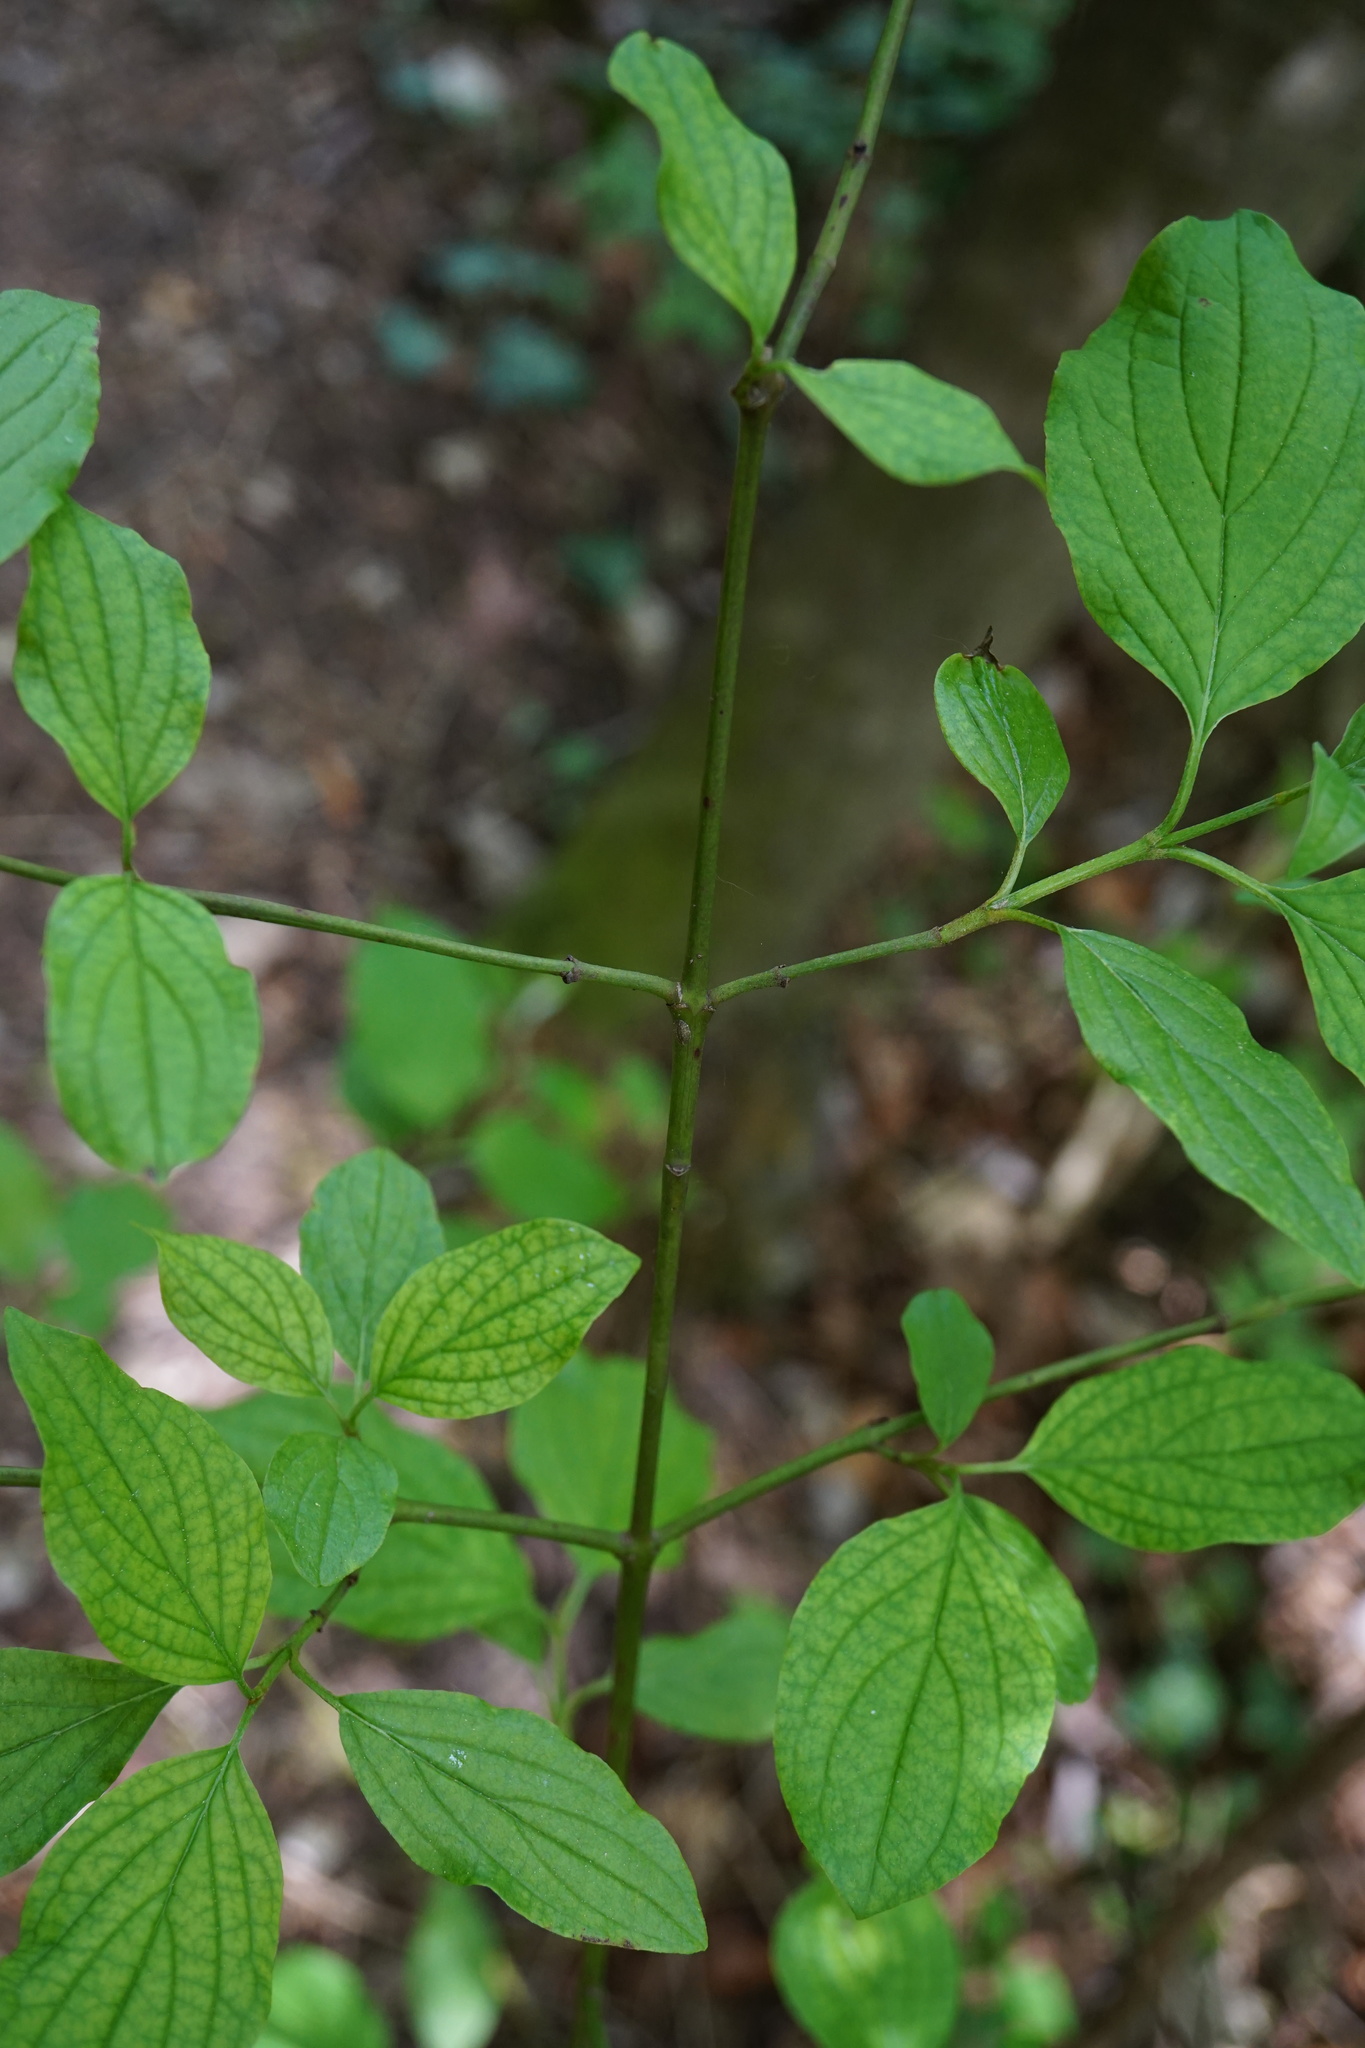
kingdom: Plantae
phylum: Tracheophyta
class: Magnoliopsida
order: Cornales
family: Cornaceae
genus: Cornus
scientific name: Cornus sanguinea
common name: Dogwood
